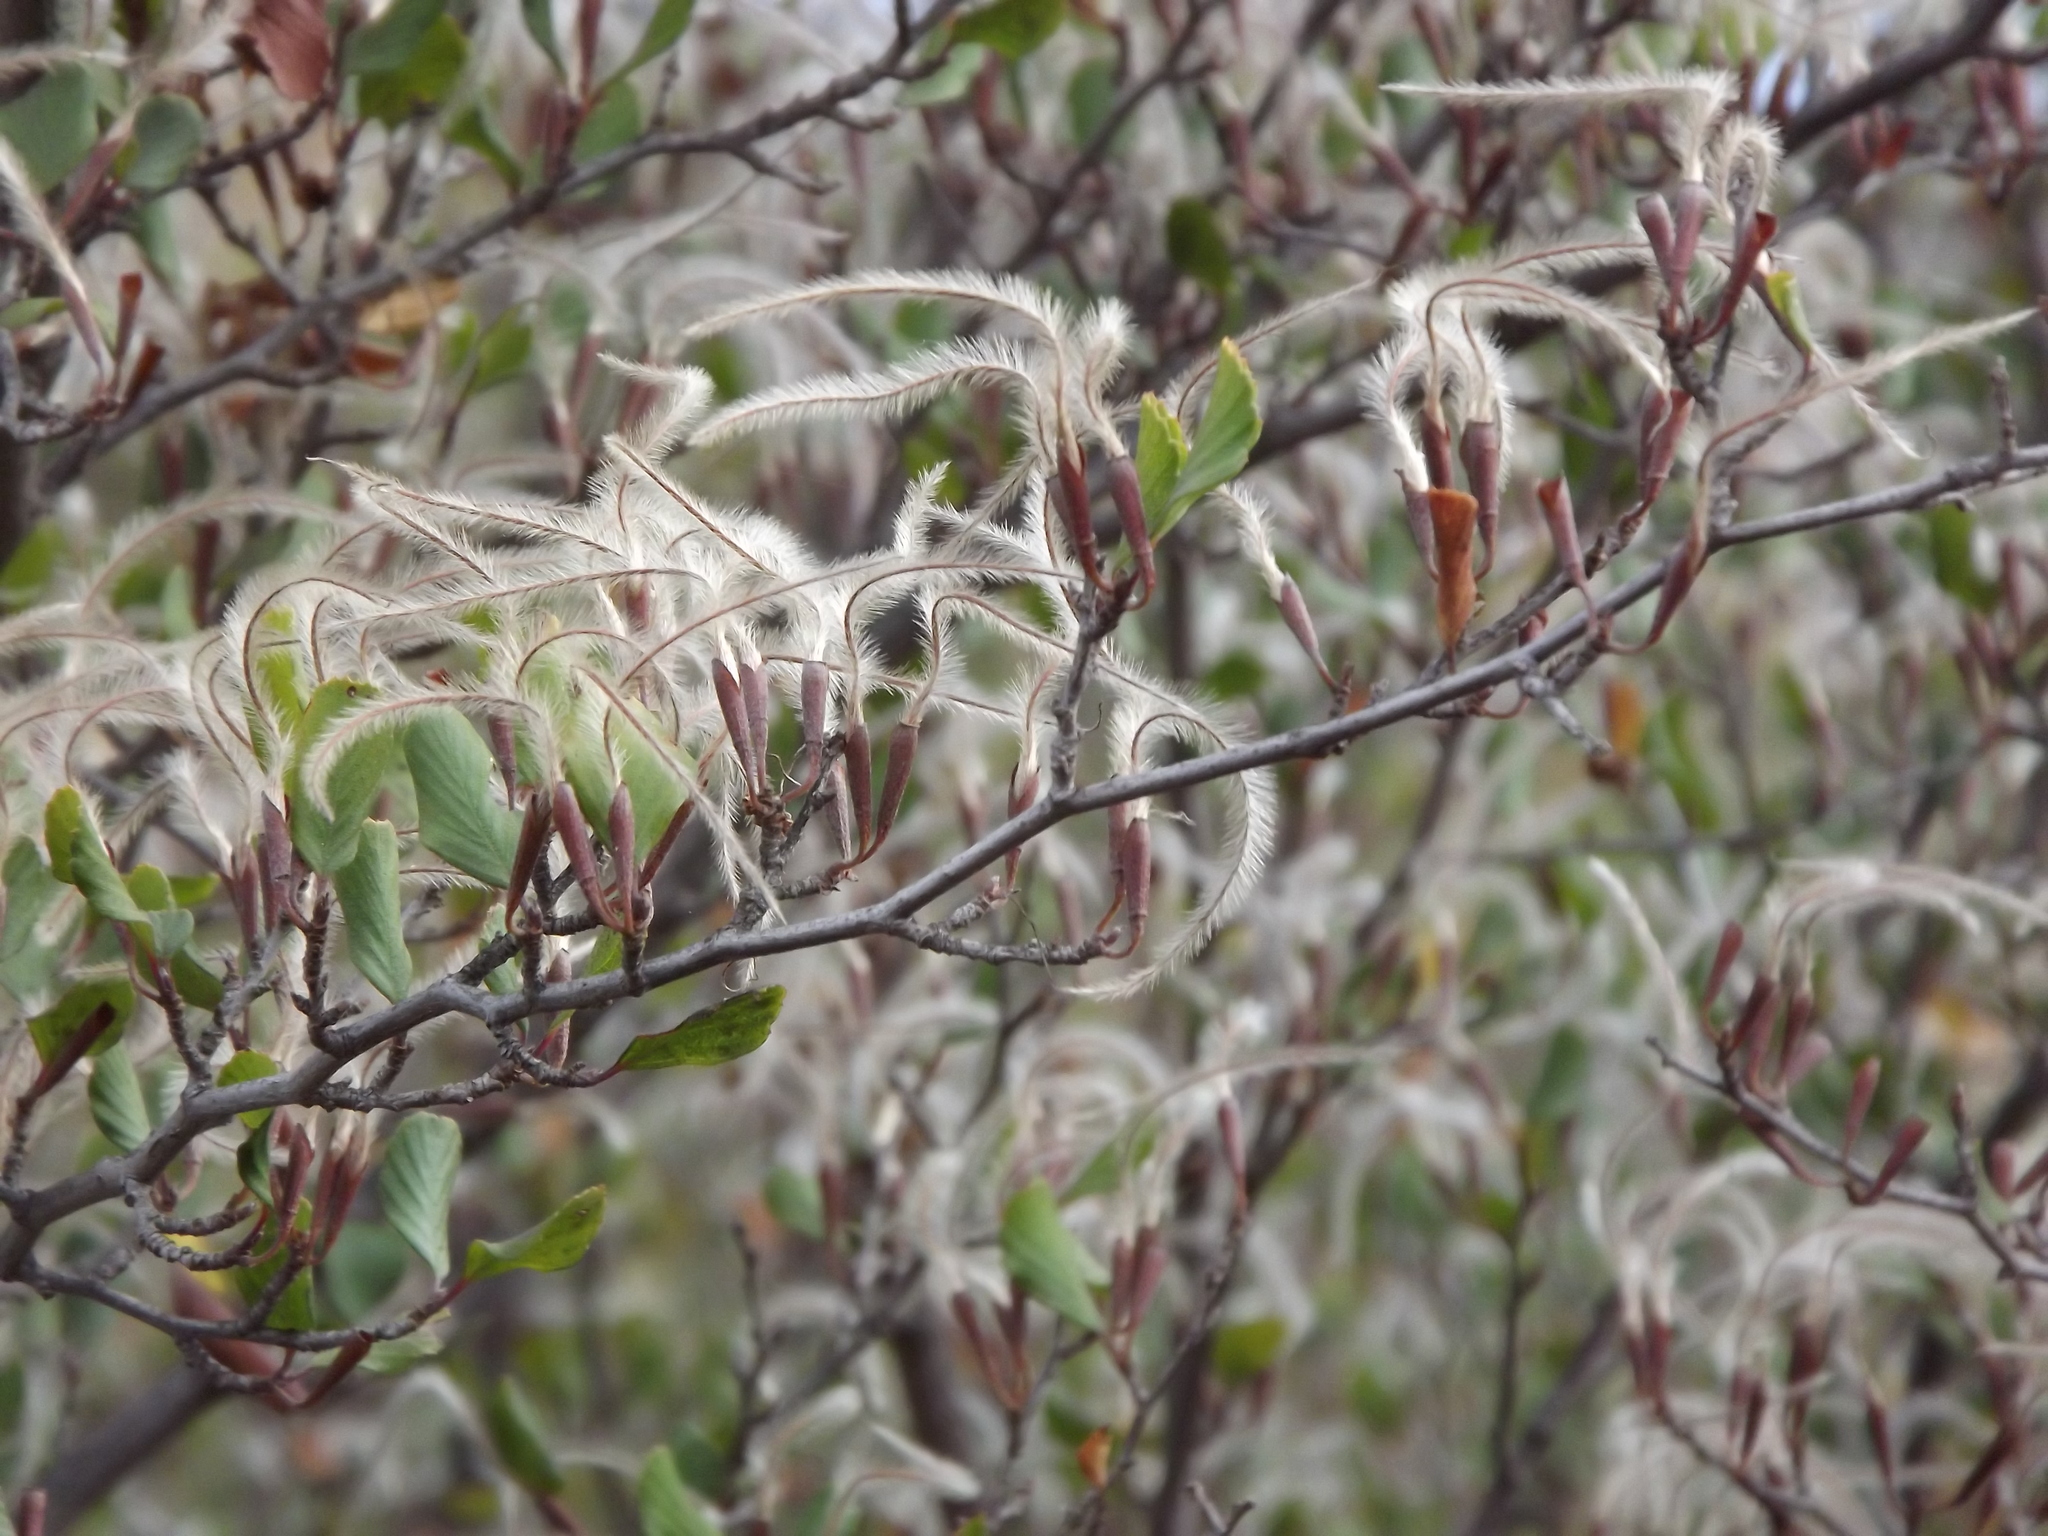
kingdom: Plantae
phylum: Tracheophyta
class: Magnoliopsida
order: Rosales
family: Rosaceae
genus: Cercocarpus
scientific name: Cercocarpus montanus
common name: Alder-leaf cercocarpus
